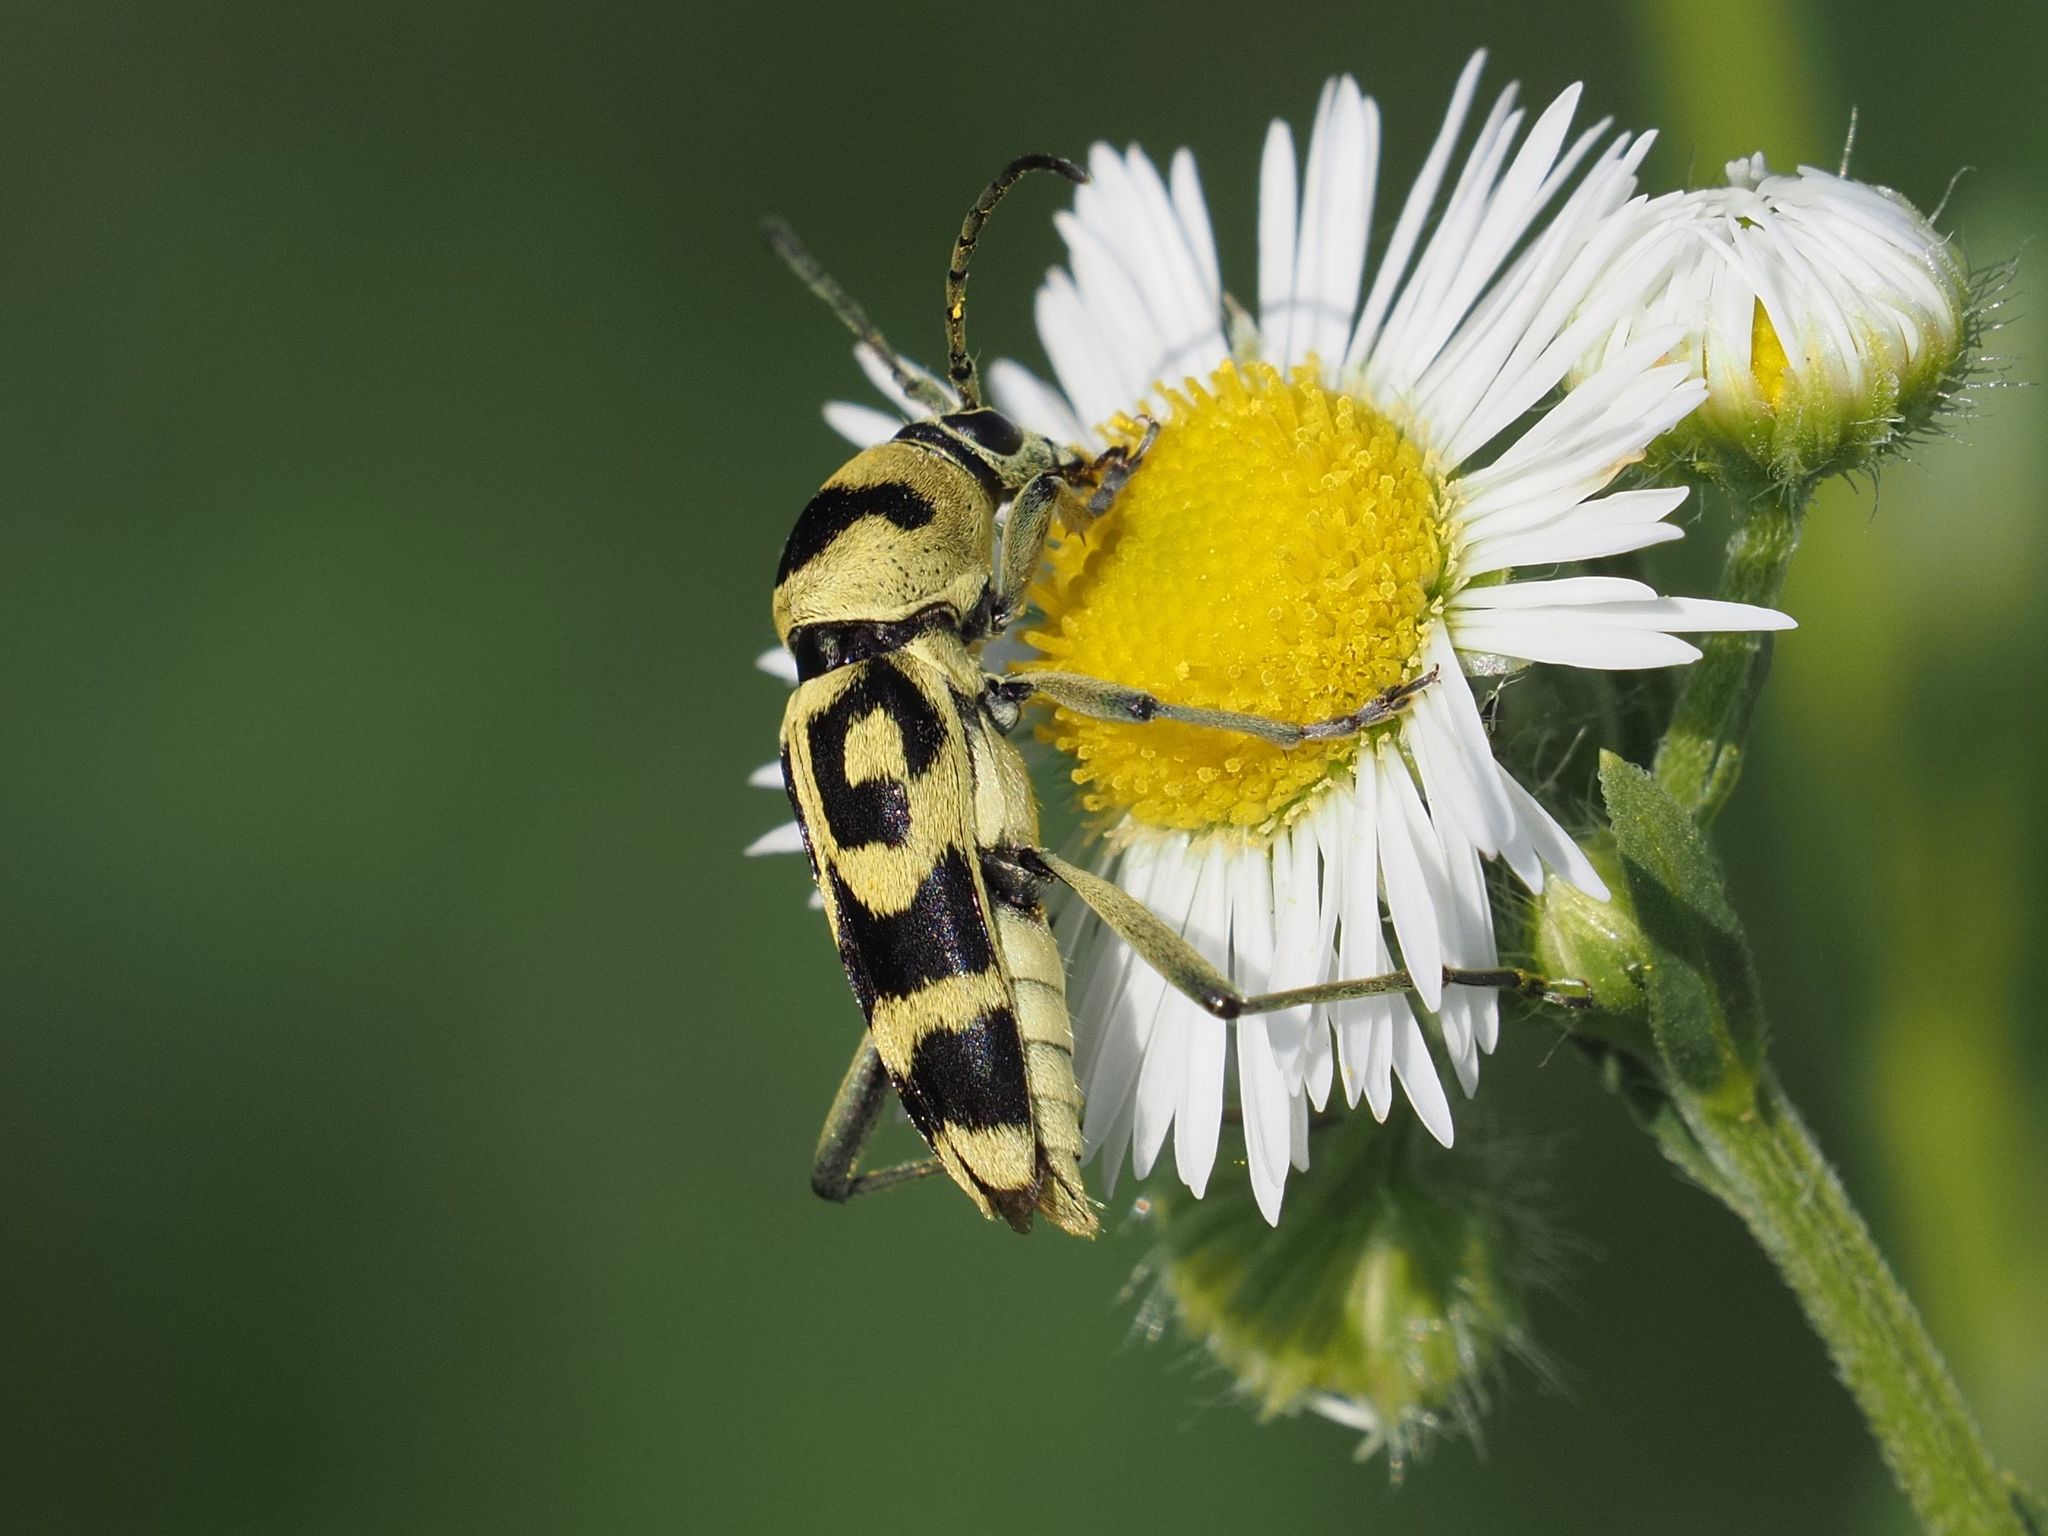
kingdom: Animalia
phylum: Arthropoda
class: Insecta
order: Coleoptera
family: Cerambycidae
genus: Chlorophorus
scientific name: Chlorophorus varius
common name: Grape wood borer
